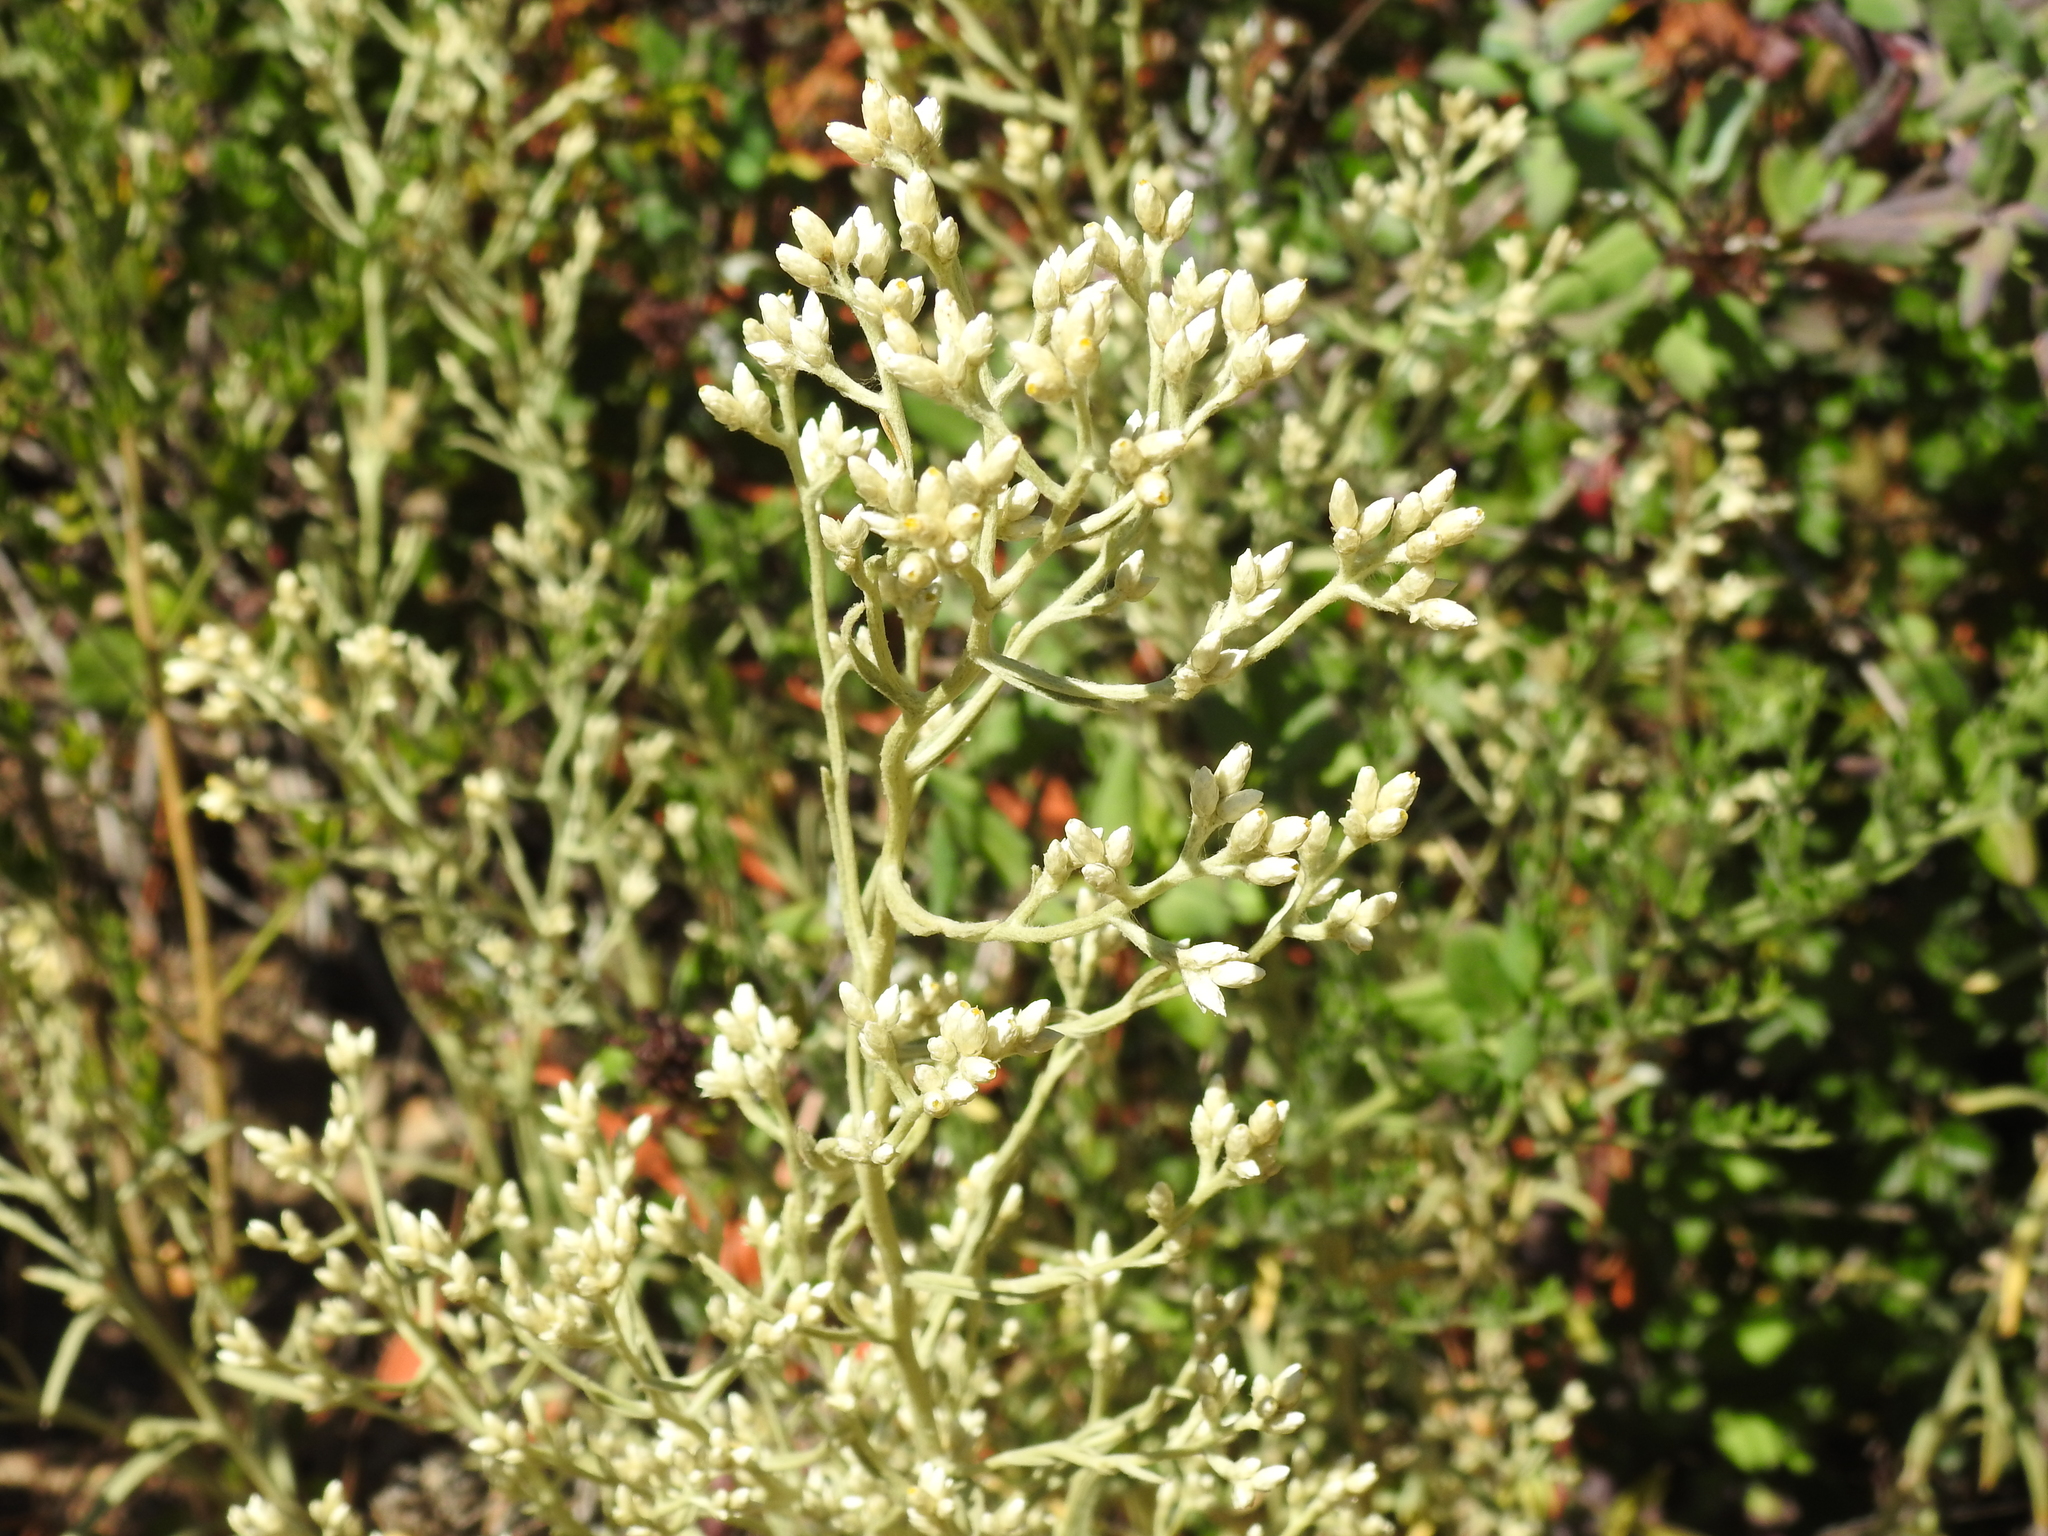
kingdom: Plantae
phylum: Tracheophyta
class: Magnoliopsida
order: Asterales
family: Asteraceae
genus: Pseudognaphalium
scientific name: Pseudognaphalium beneolens
